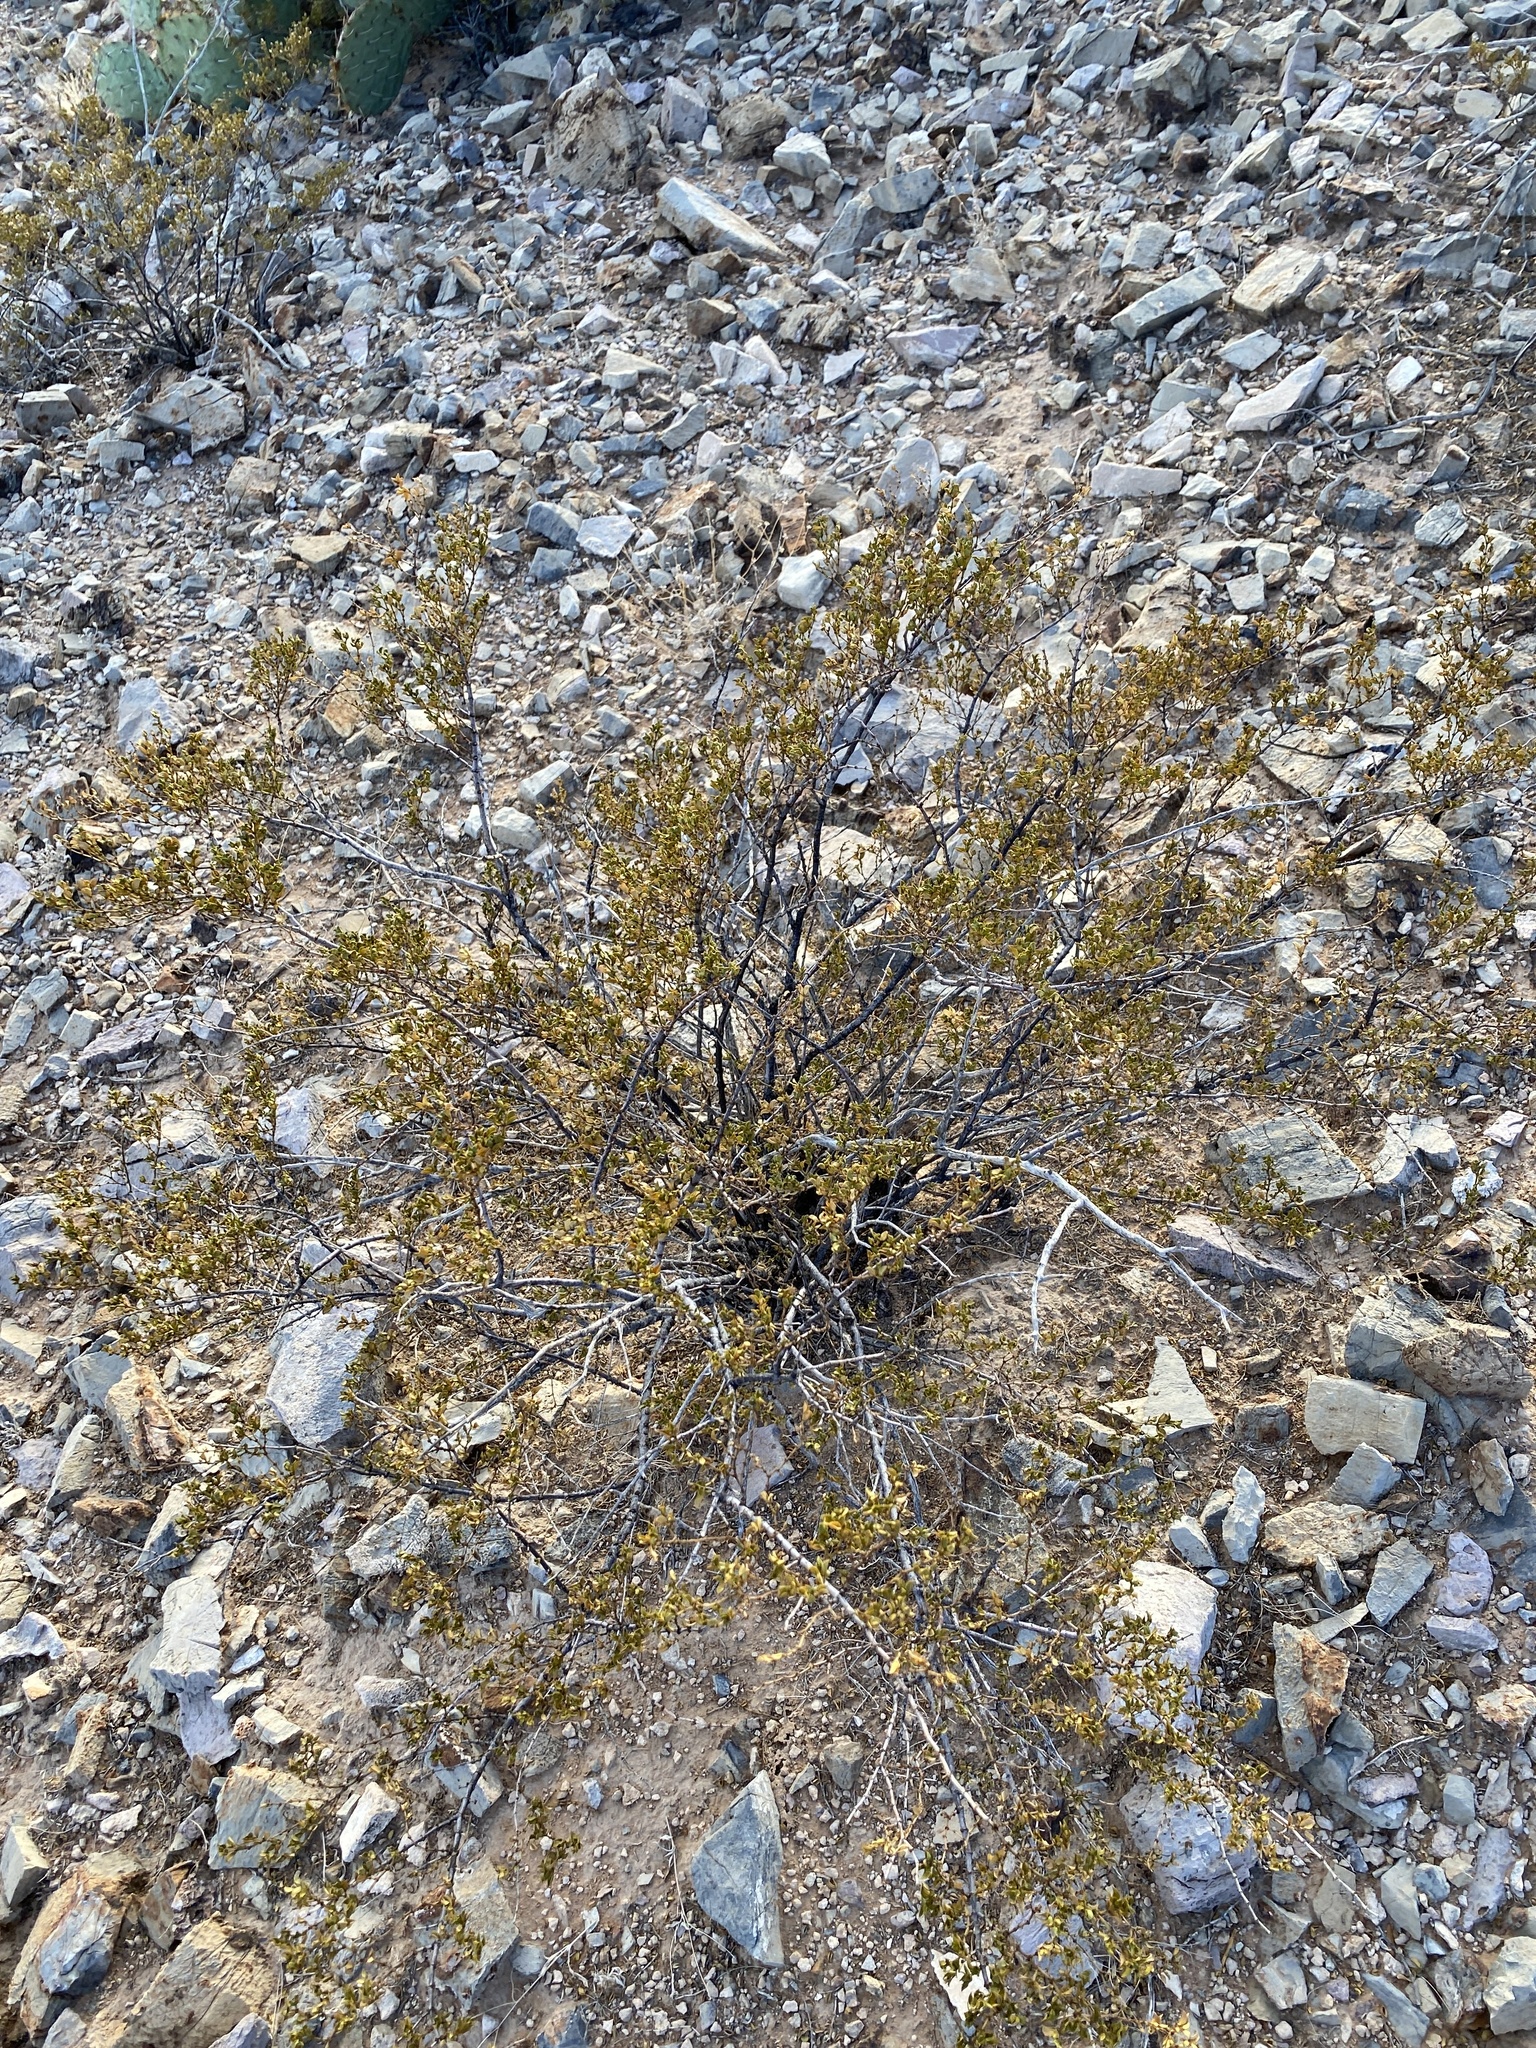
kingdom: Plantae
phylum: Tracheophyta
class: Magnoliopsida
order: Zygophyllales
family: Zygophyllaceae
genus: Larrea
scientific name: Larrea tridentata
